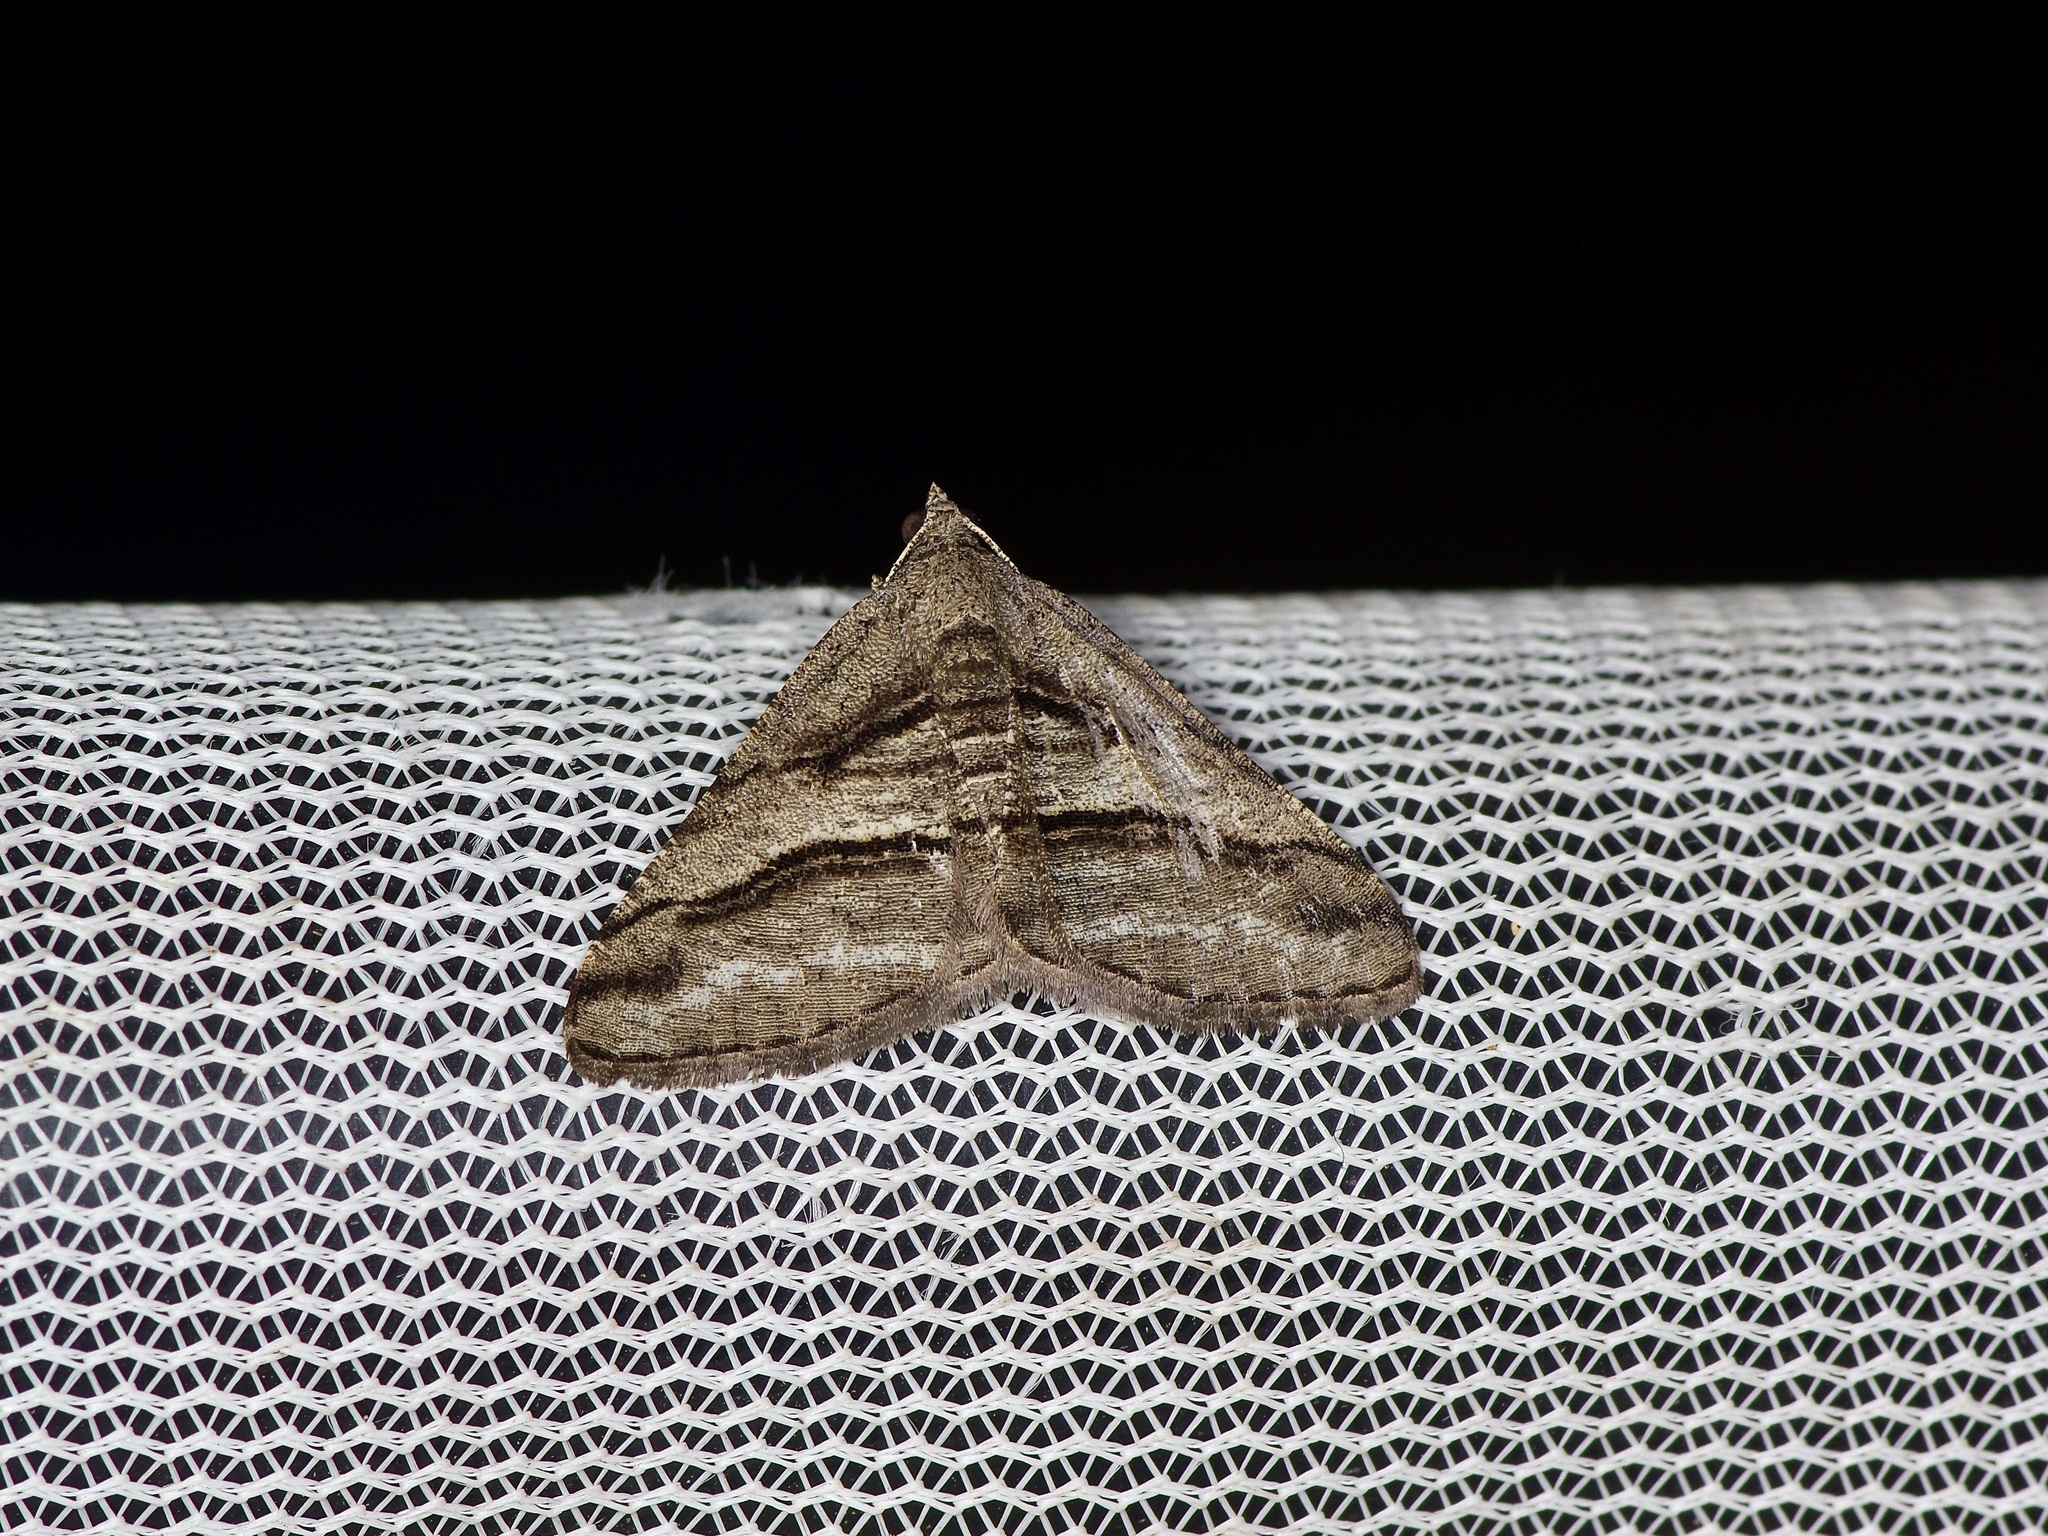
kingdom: Animalia
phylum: Arthropoda
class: Insecta
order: Lepidoptera
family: Geometridae
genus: Digrammia
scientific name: Digrammia atrofasciata
